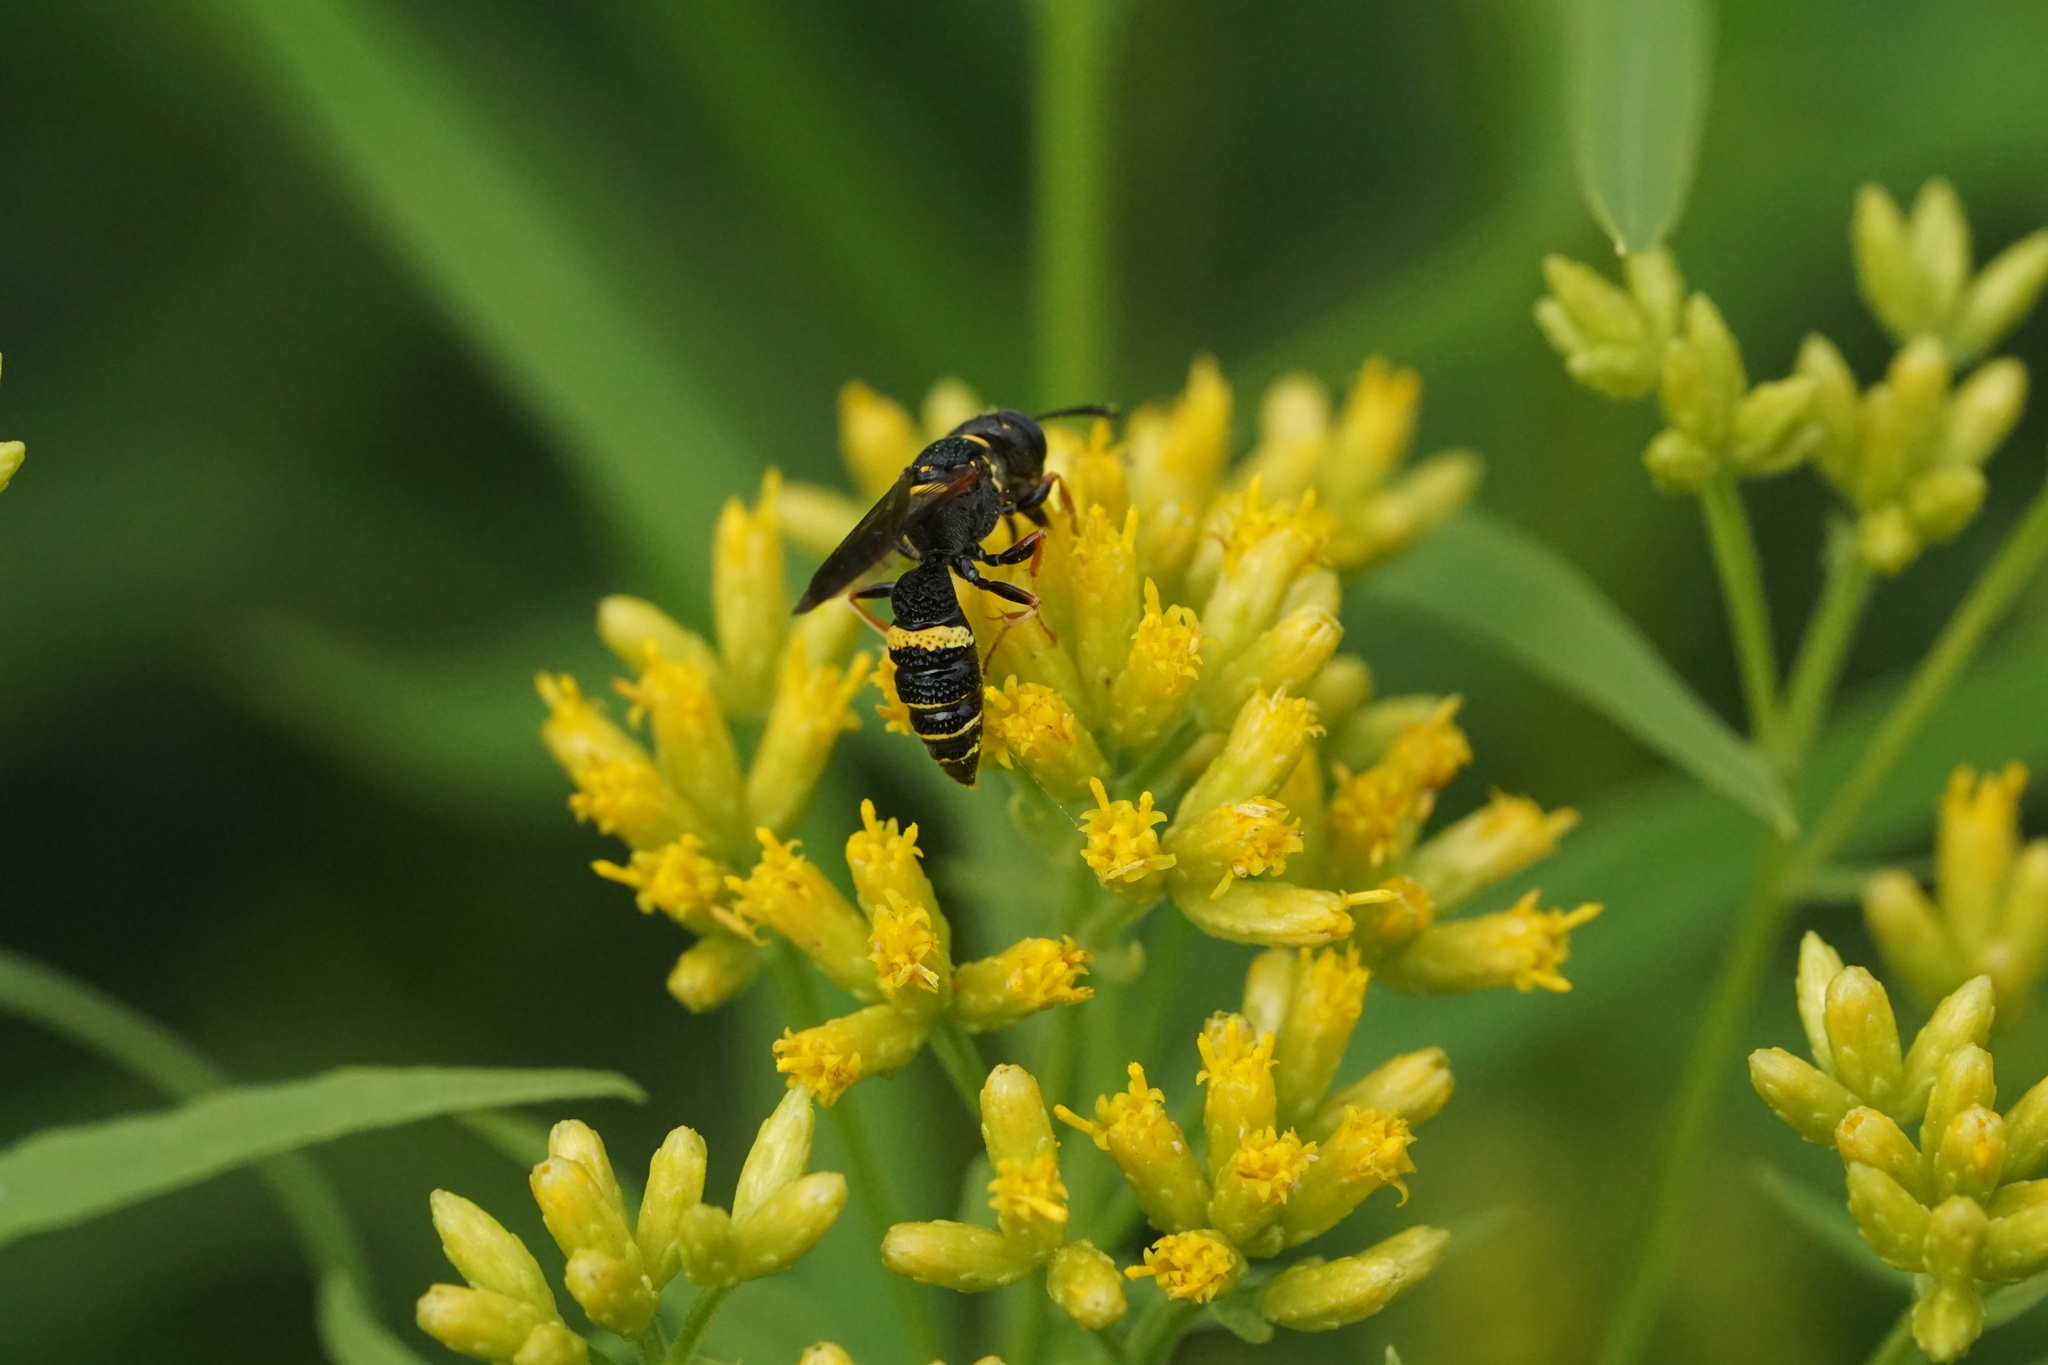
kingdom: Animalia
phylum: Arthropoda
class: Insecta
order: Hymenoptera
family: Crabronidae
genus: Philanthus
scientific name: Philanthus gibbosus
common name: Humped beewolf
